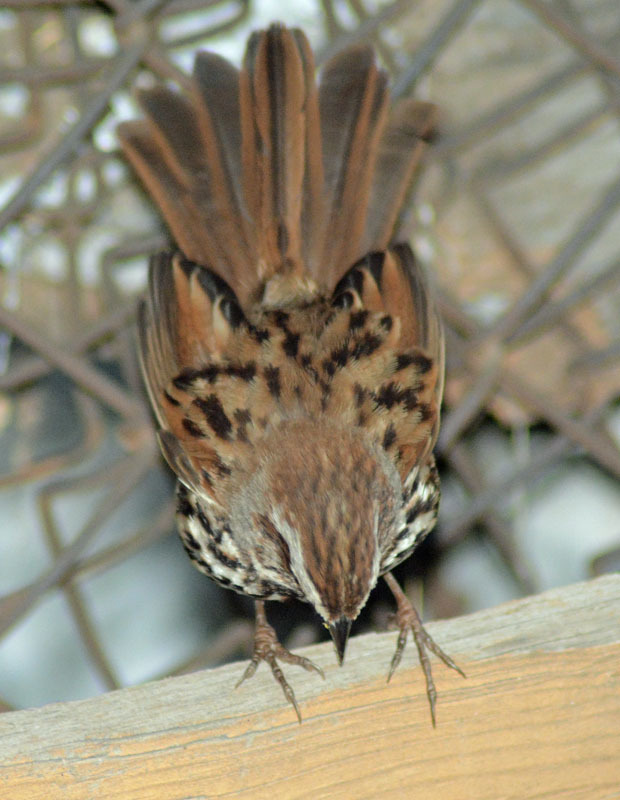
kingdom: Animalia
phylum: Chordata
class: Aves
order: Passeriformes
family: Passerellidae
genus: Melospiza
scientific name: Melospiza melodia
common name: Song sparrow
